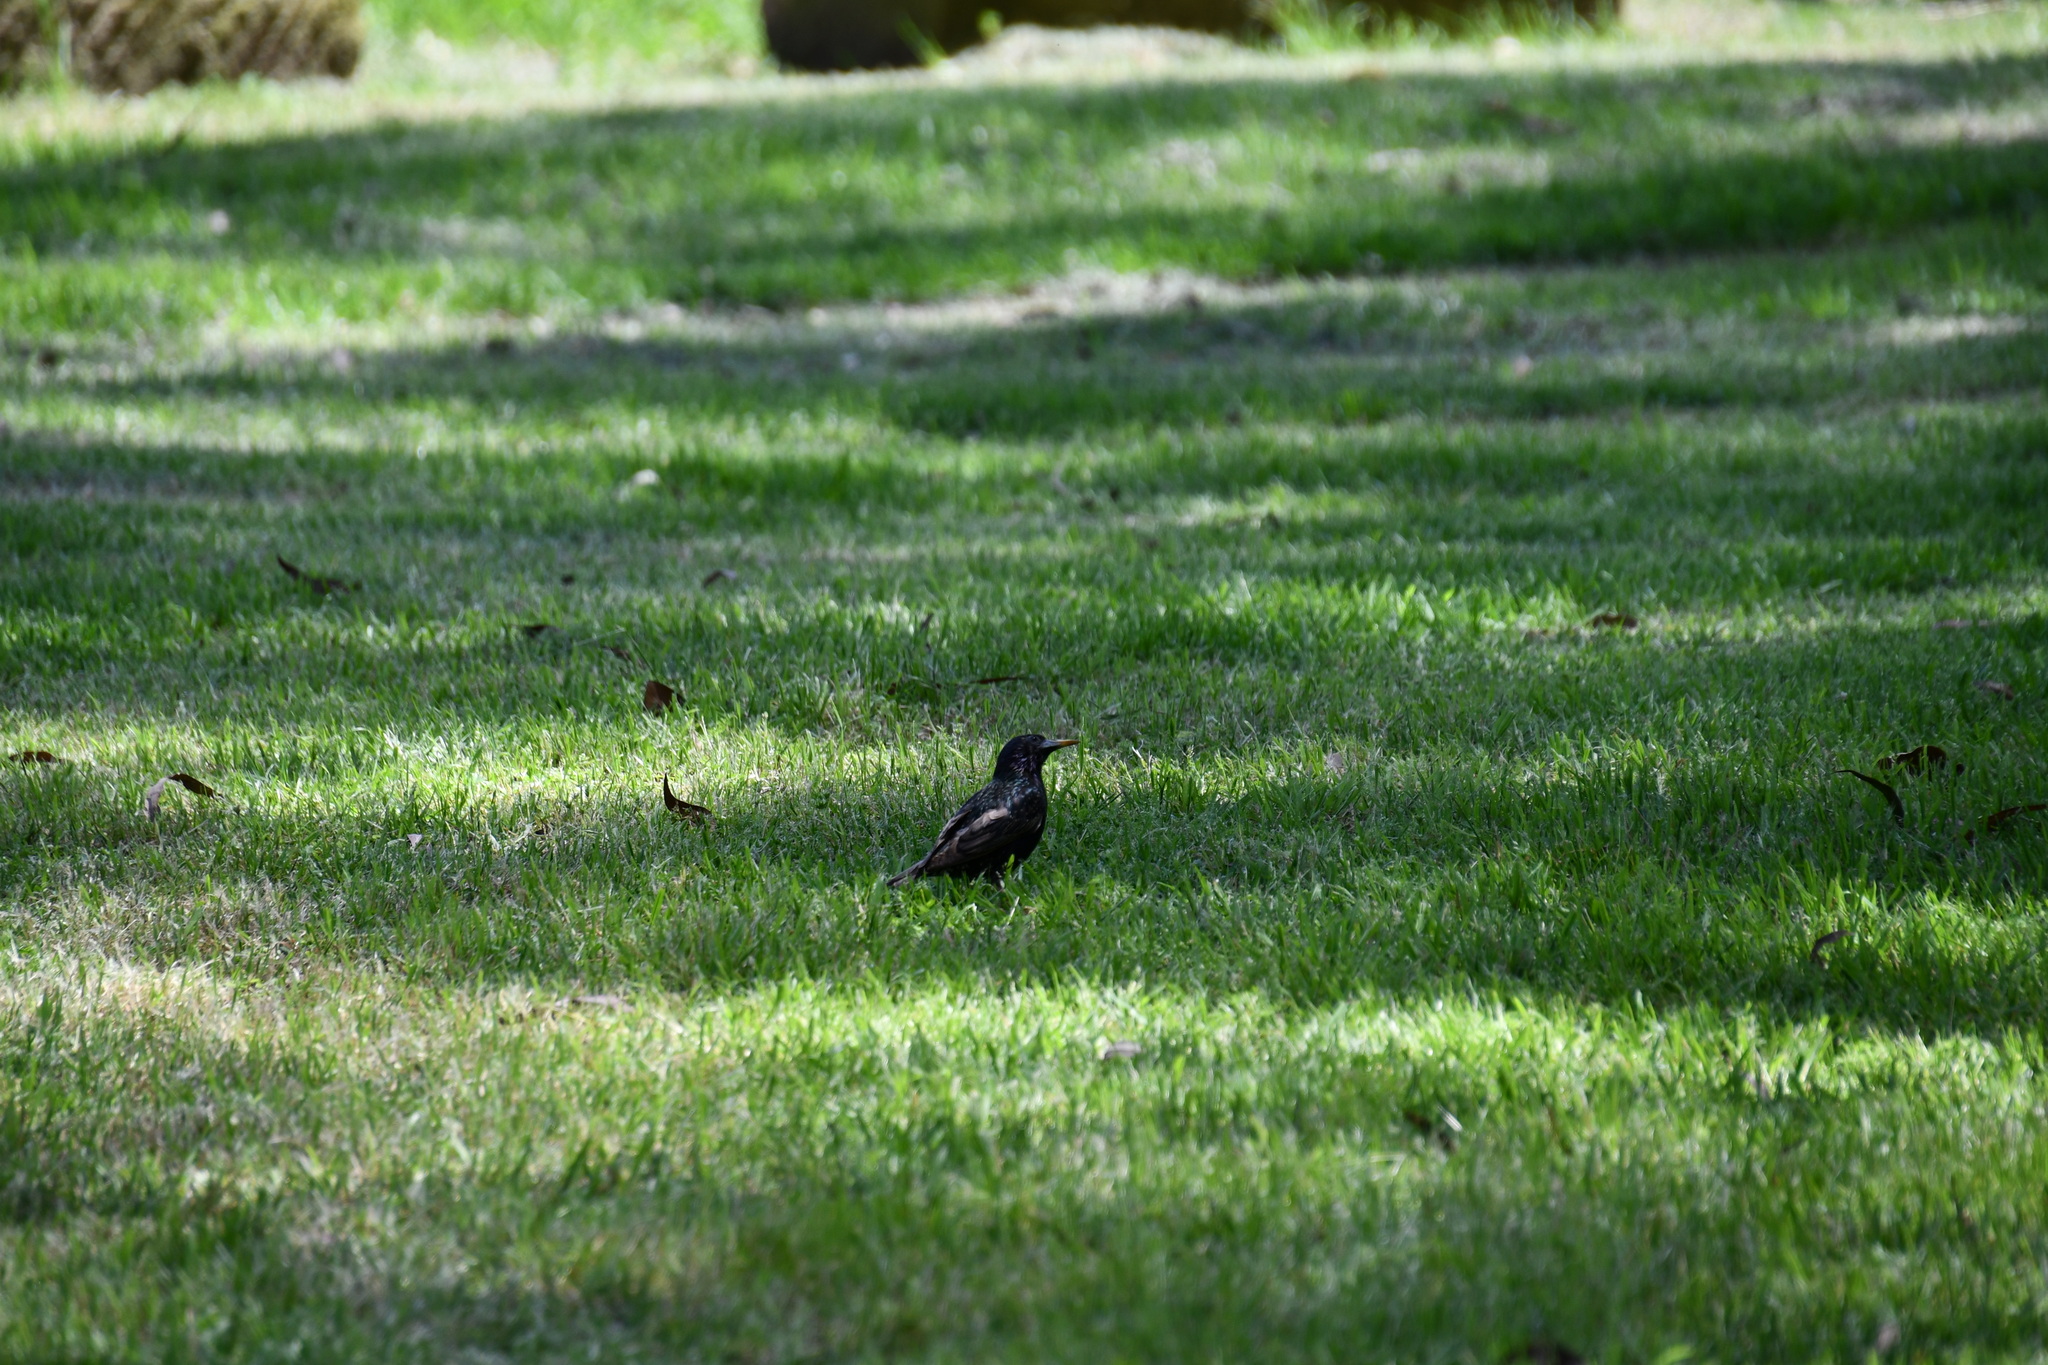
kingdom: Animalia
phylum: Chordata
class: Aves
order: Passeriformes
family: Sturnidae
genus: Sturnus
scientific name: Sturnus vulgaris
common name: Common starling
